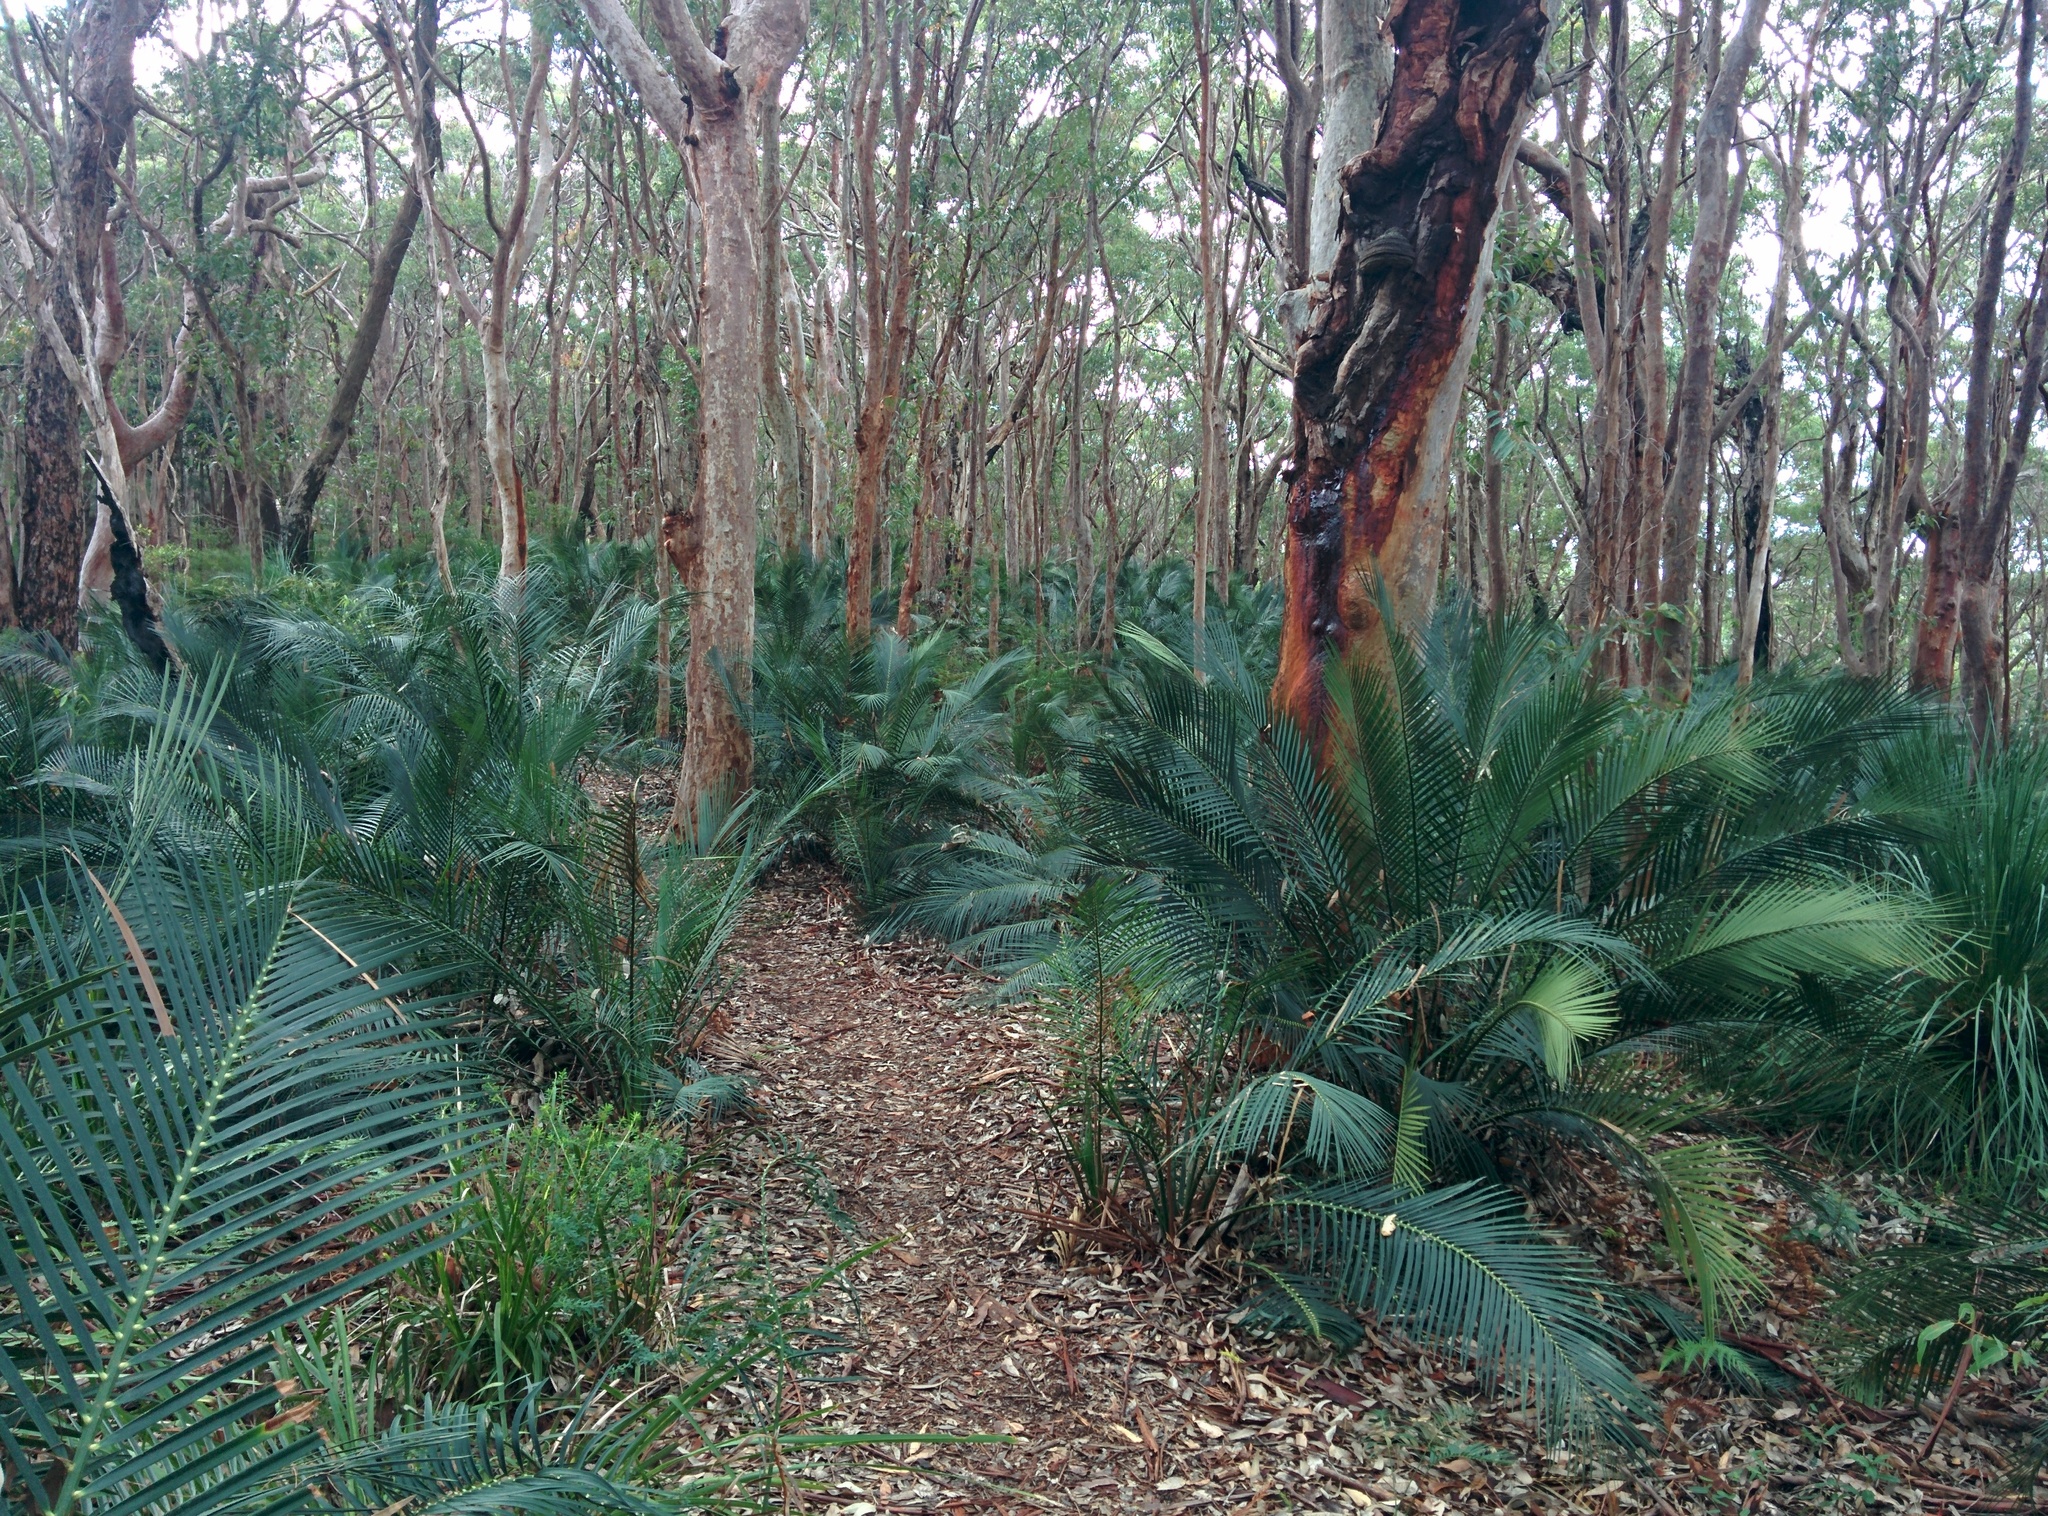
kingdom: Plantae
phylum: Tracheophyta
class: Cycadopsida
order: Cycadales
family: Zamiaceae
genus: Macrozamia
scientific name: Macrozamia communis
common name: Burrawong
